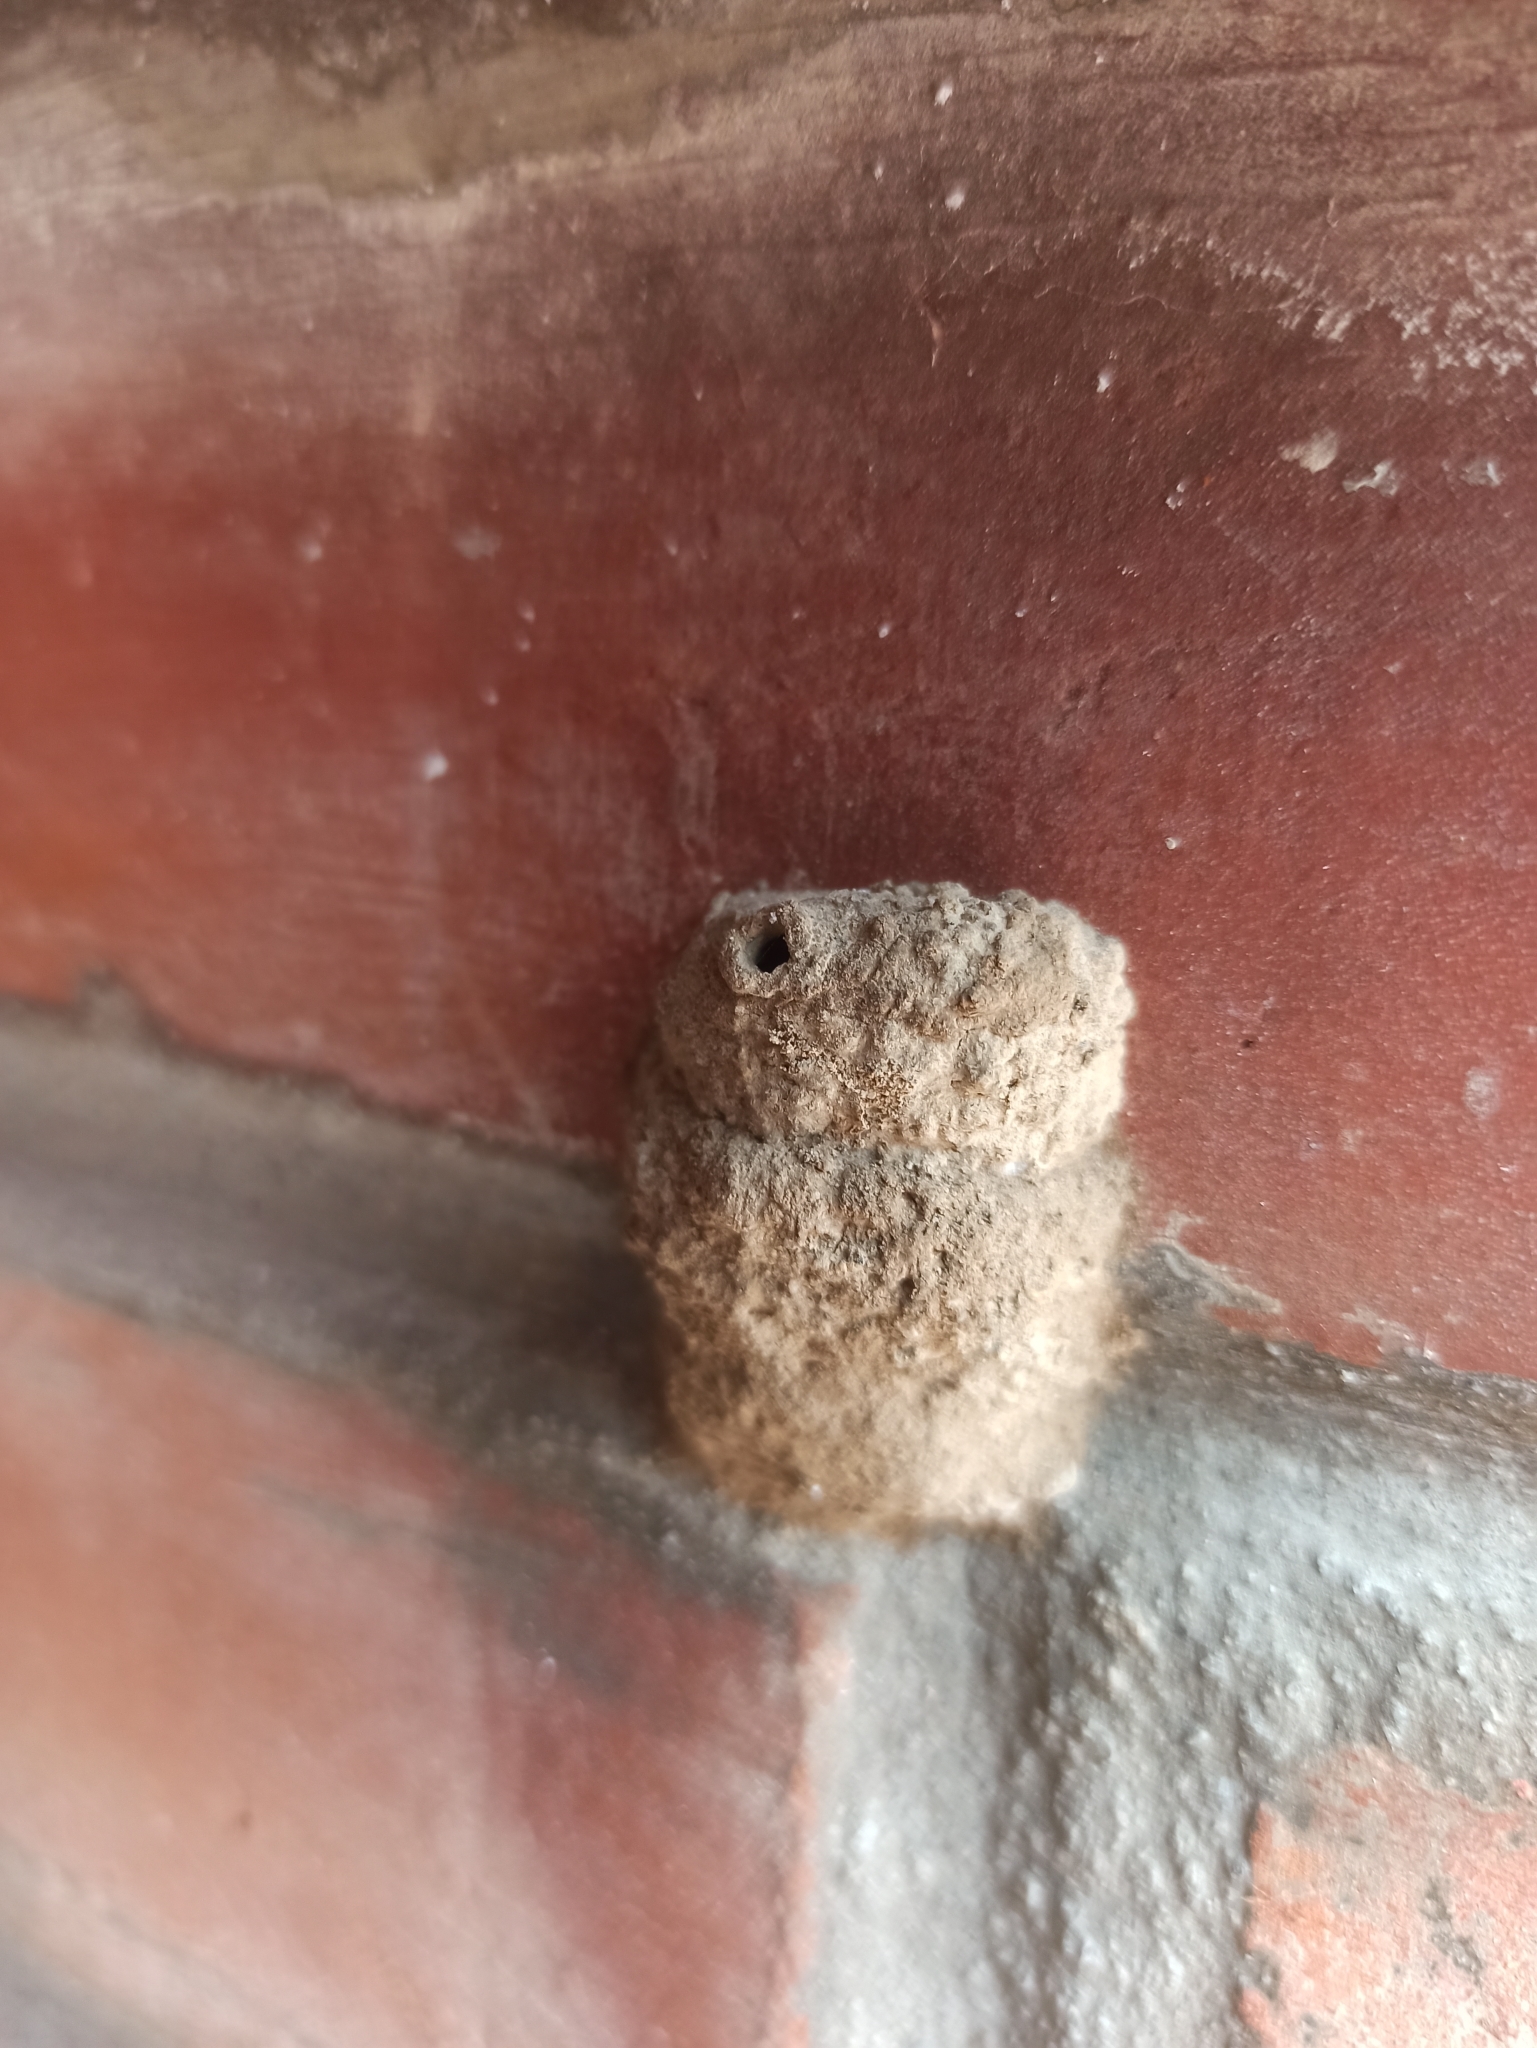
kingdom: Animalia
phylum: Arthropoda
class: Insecta
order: Hymenoptera
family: Vespidae
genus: Hypodynerus
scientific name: Hypodynerus
